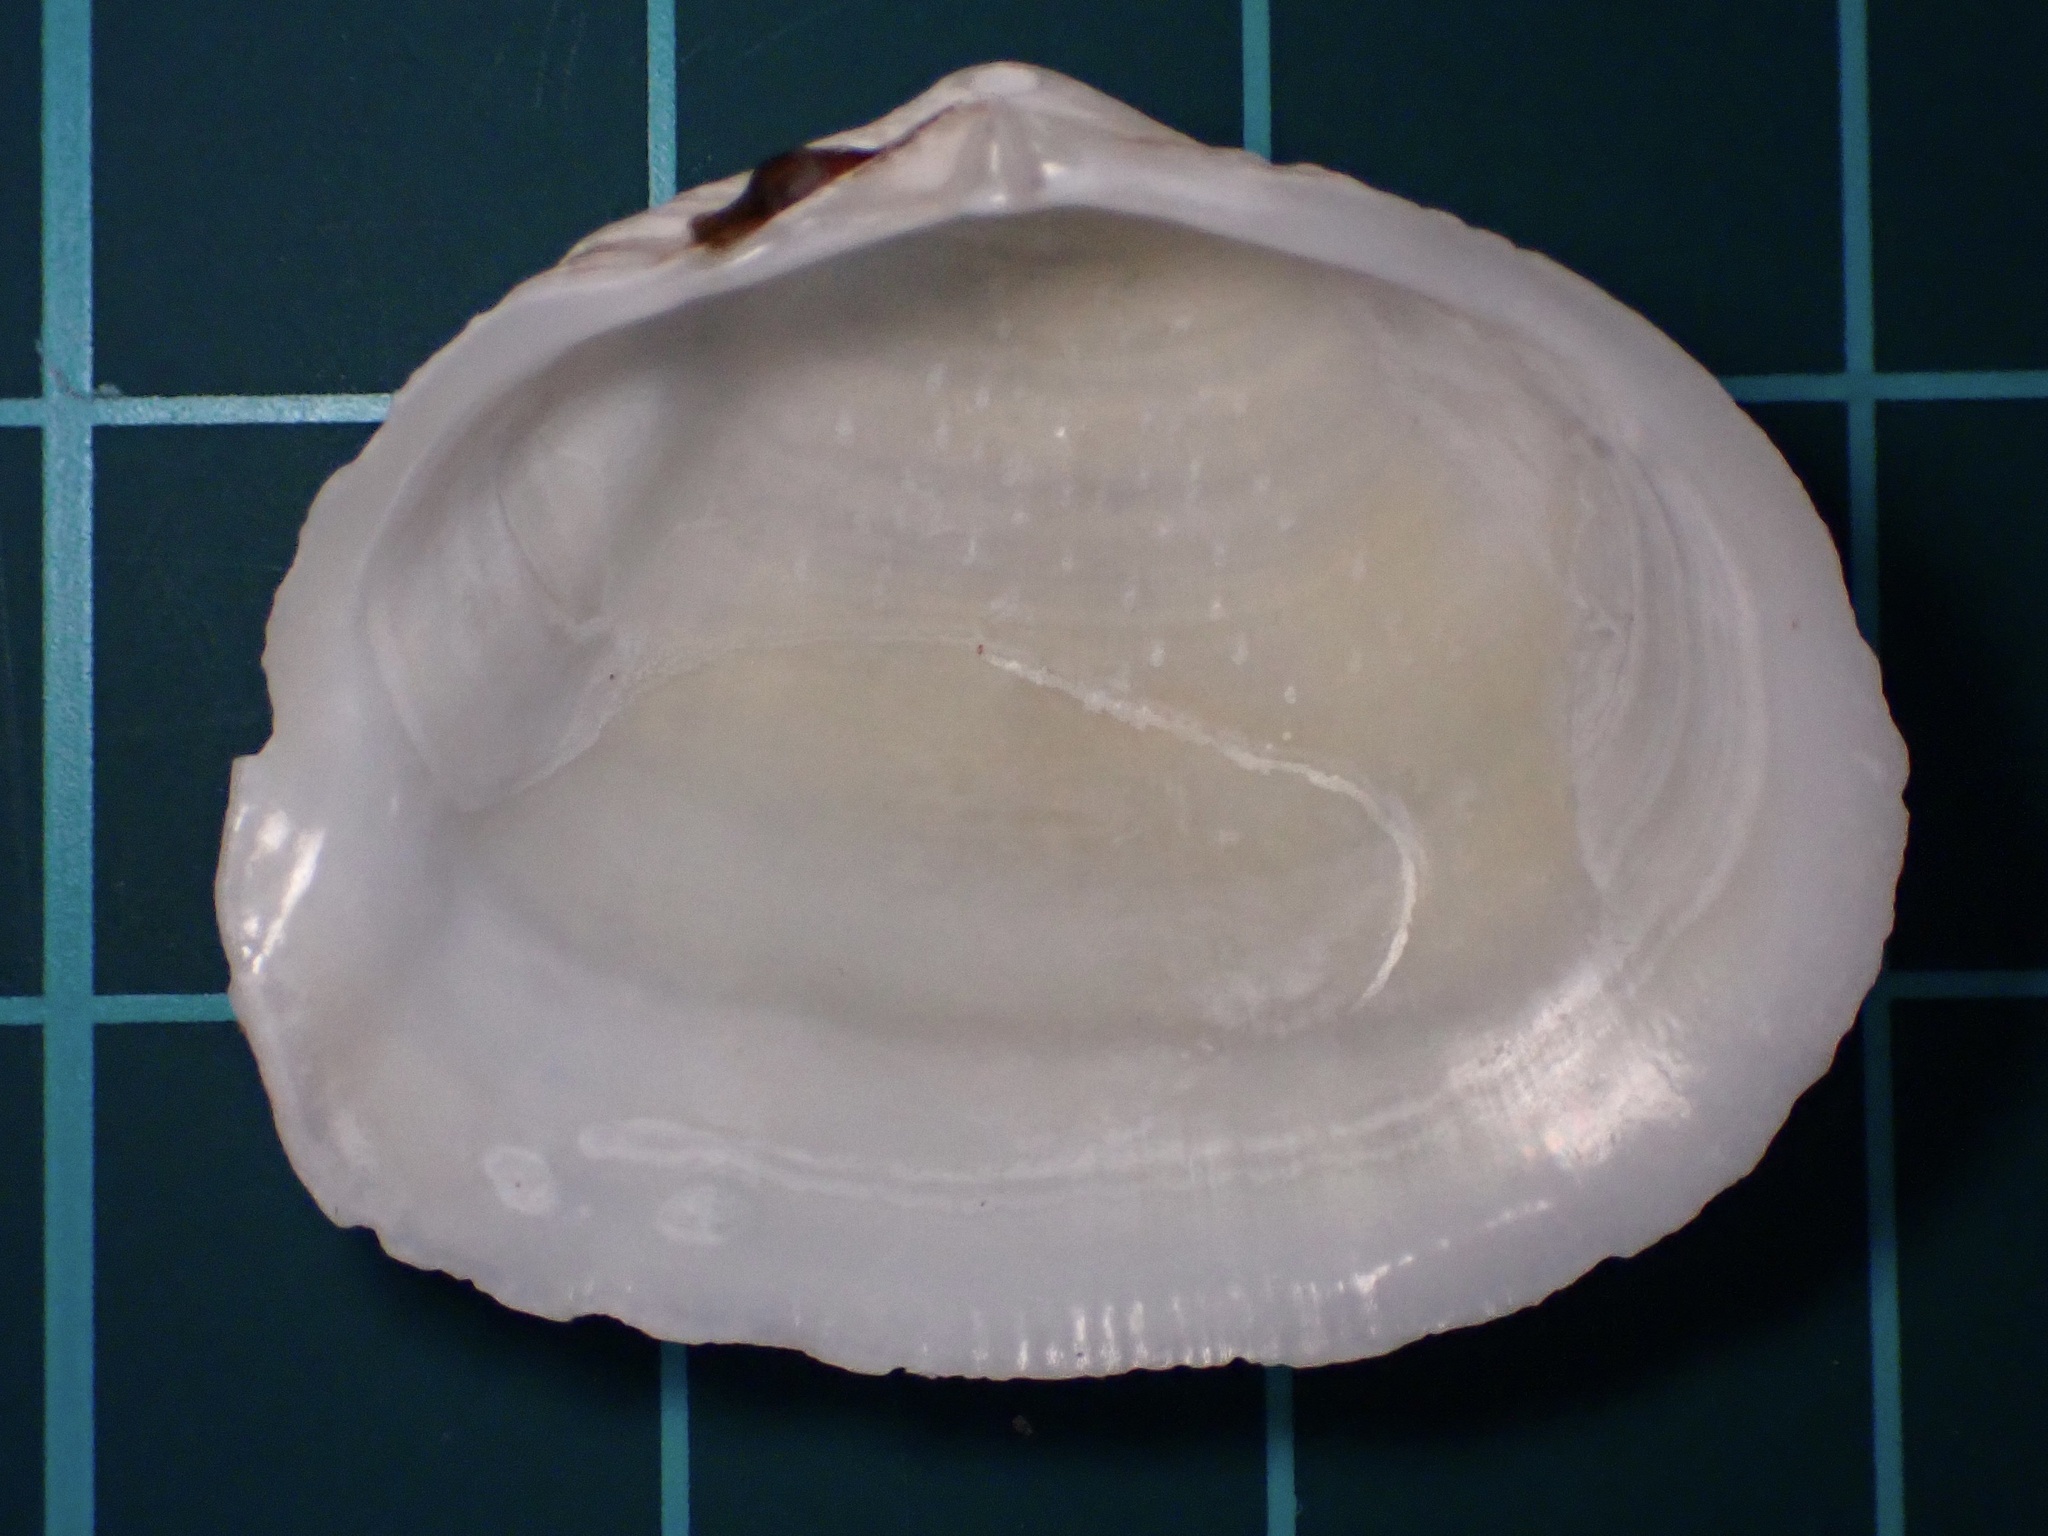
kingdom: Animalia
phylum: Mollusca
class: Bivalvia
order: Cardiida
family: Tellinidae
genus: Leporimetis
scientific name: Leporimetis obesa
